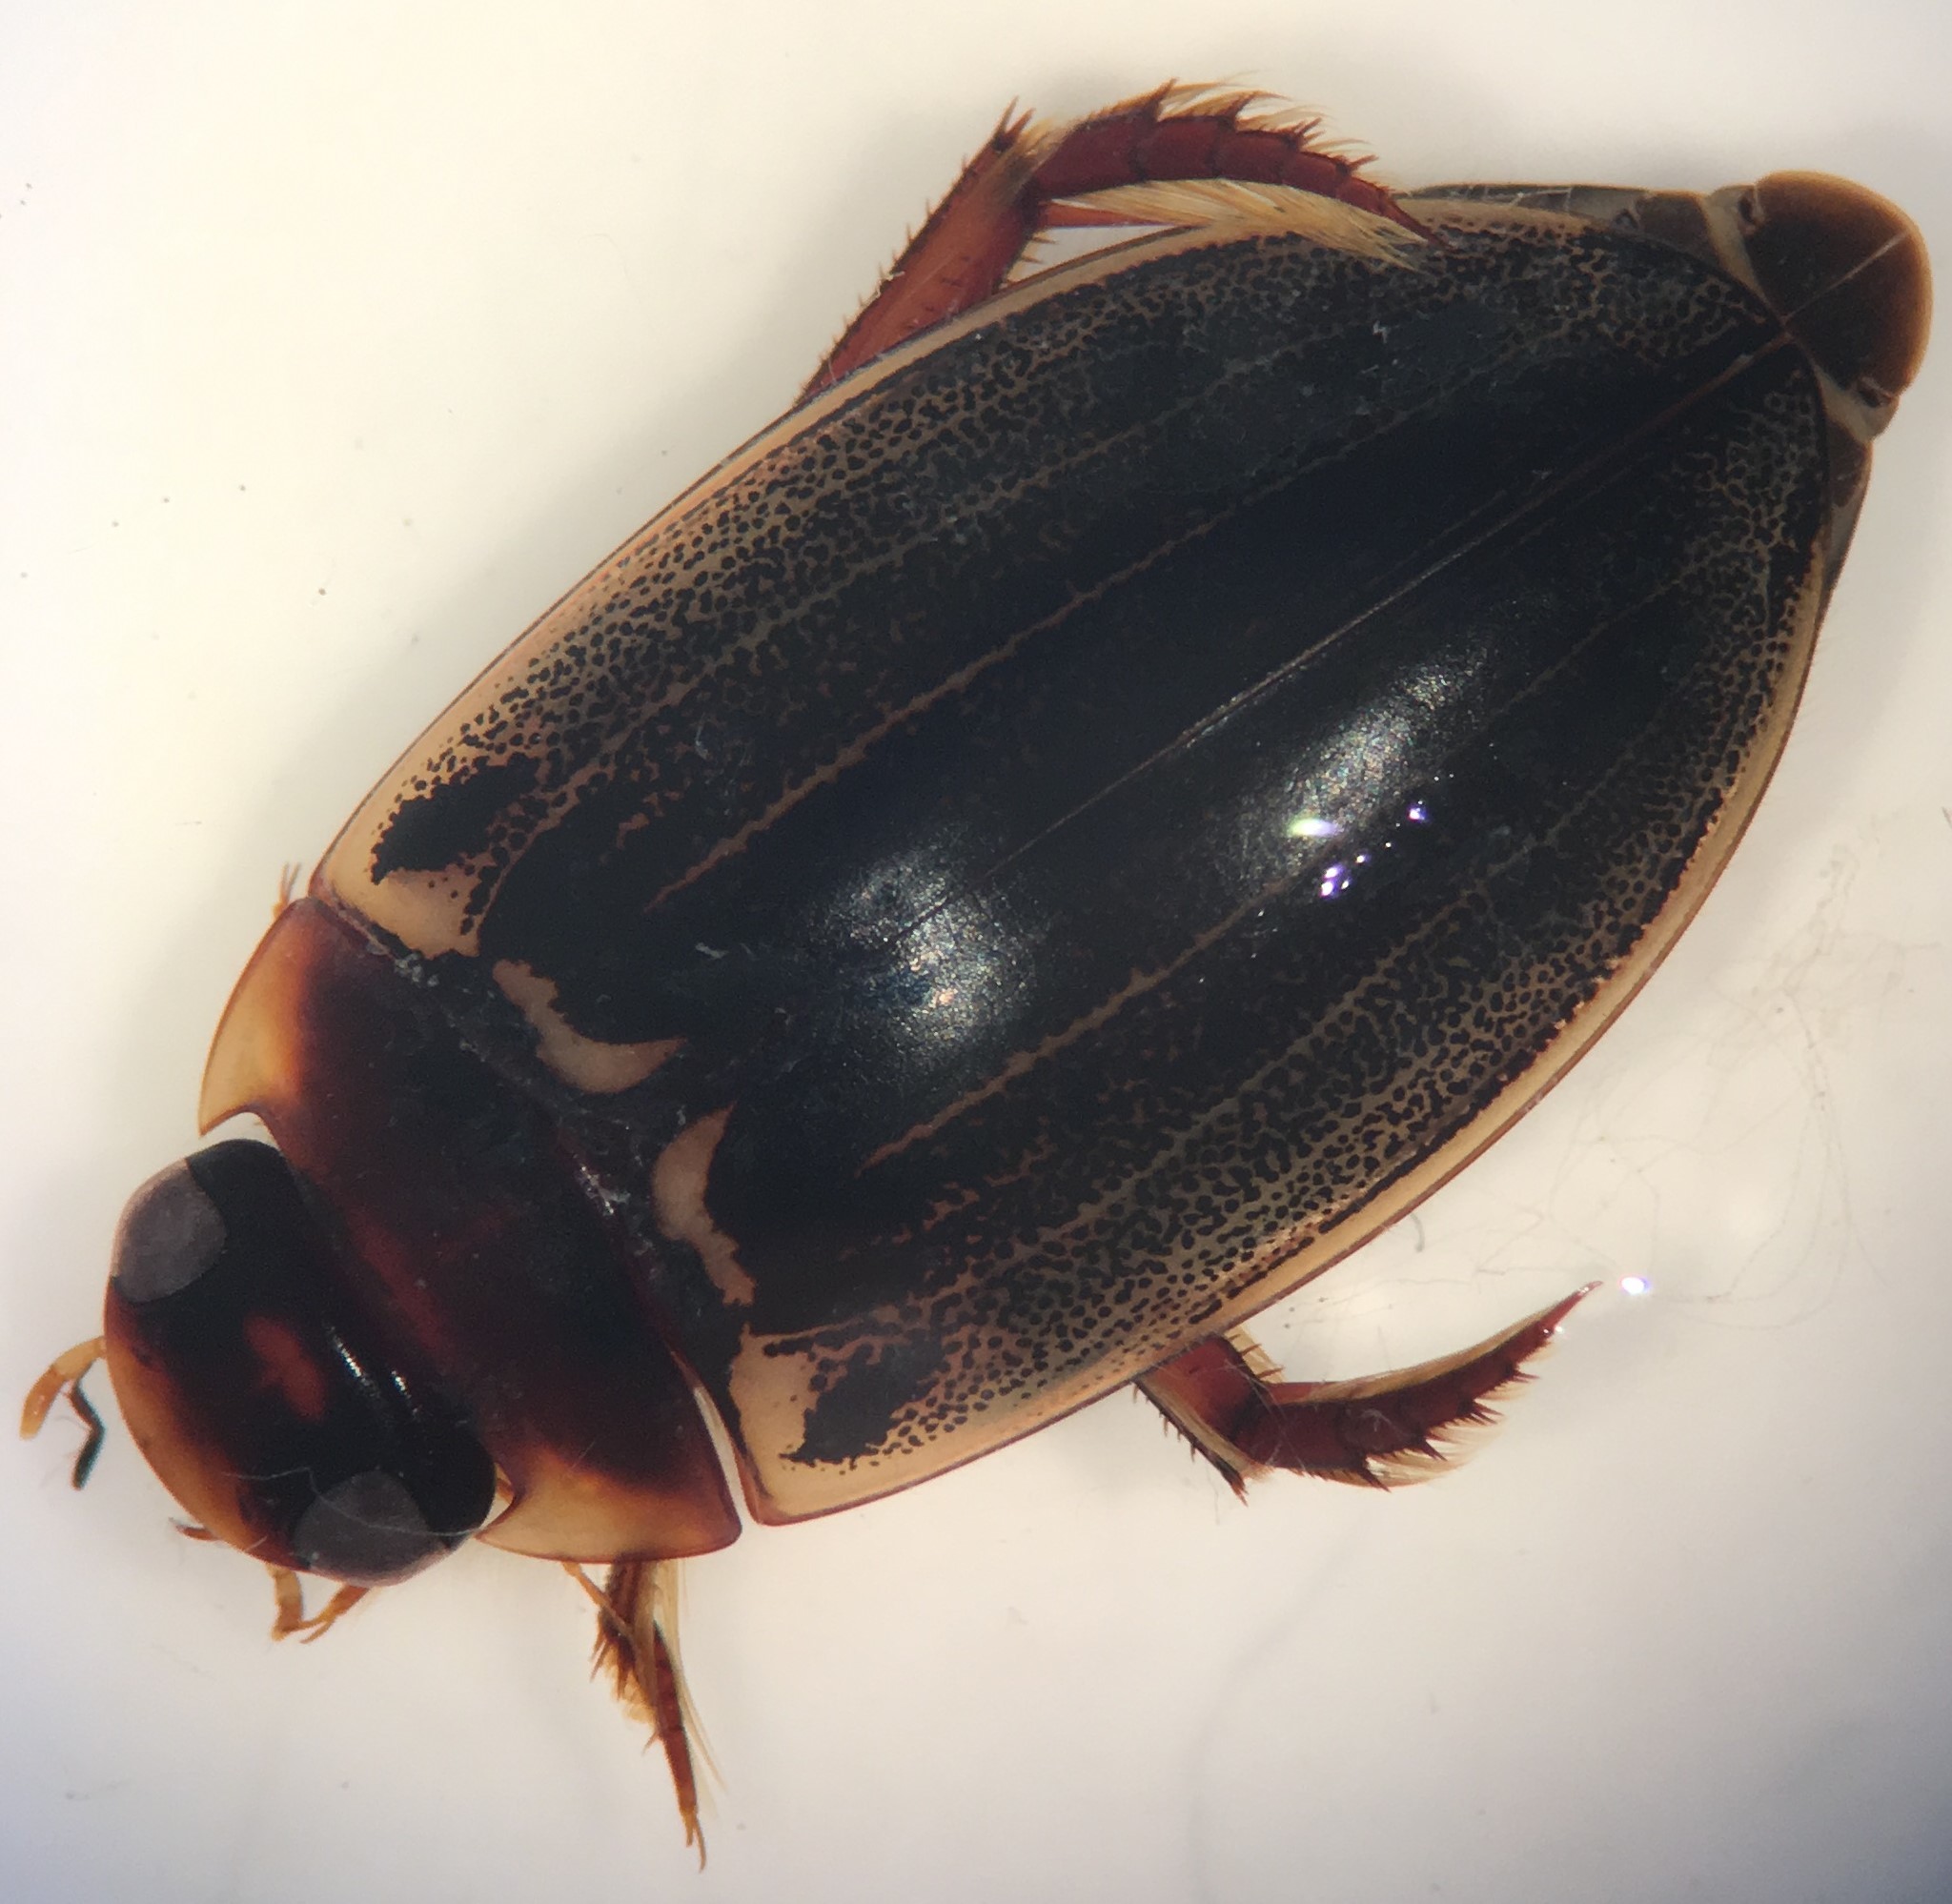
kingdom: Animalia
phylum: Arthropoda
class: Insecta
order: Coleoptera
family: Dytiscidae
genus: Meridiorhantus
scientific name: Meridiorhantus calidus
